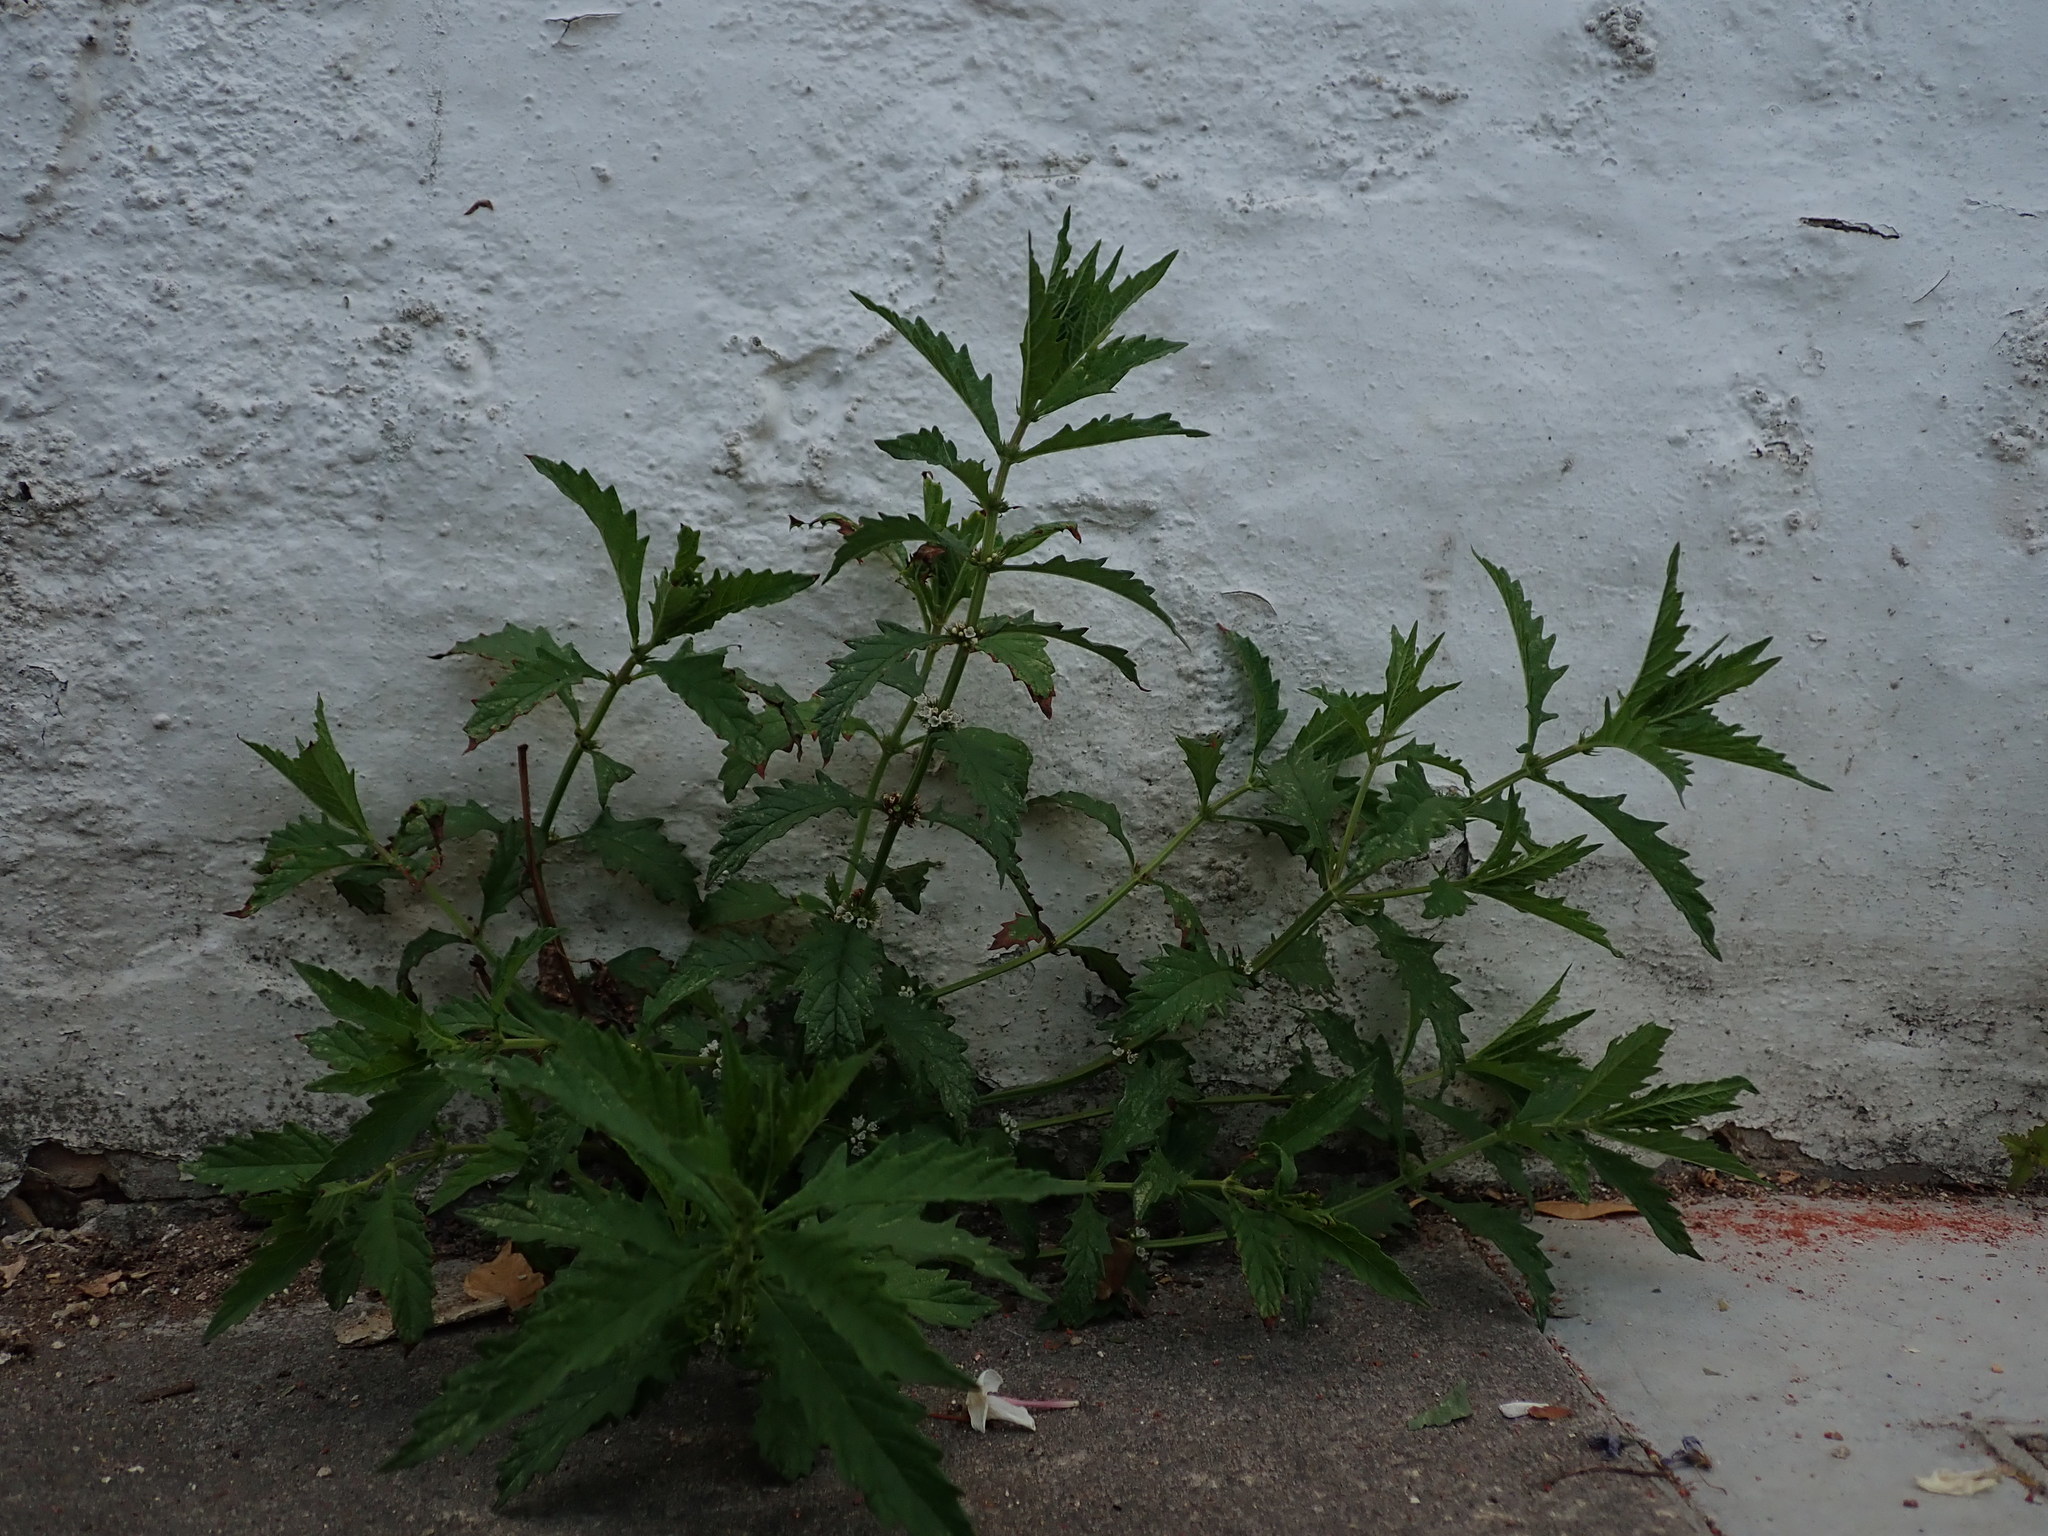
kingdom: Plantae
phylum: Tracheophyta
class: Magnoliopsida
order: Lamiales
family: Lamiaceae
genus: Lycopus
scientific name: Lycopus europaeus
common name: European bugleweed
